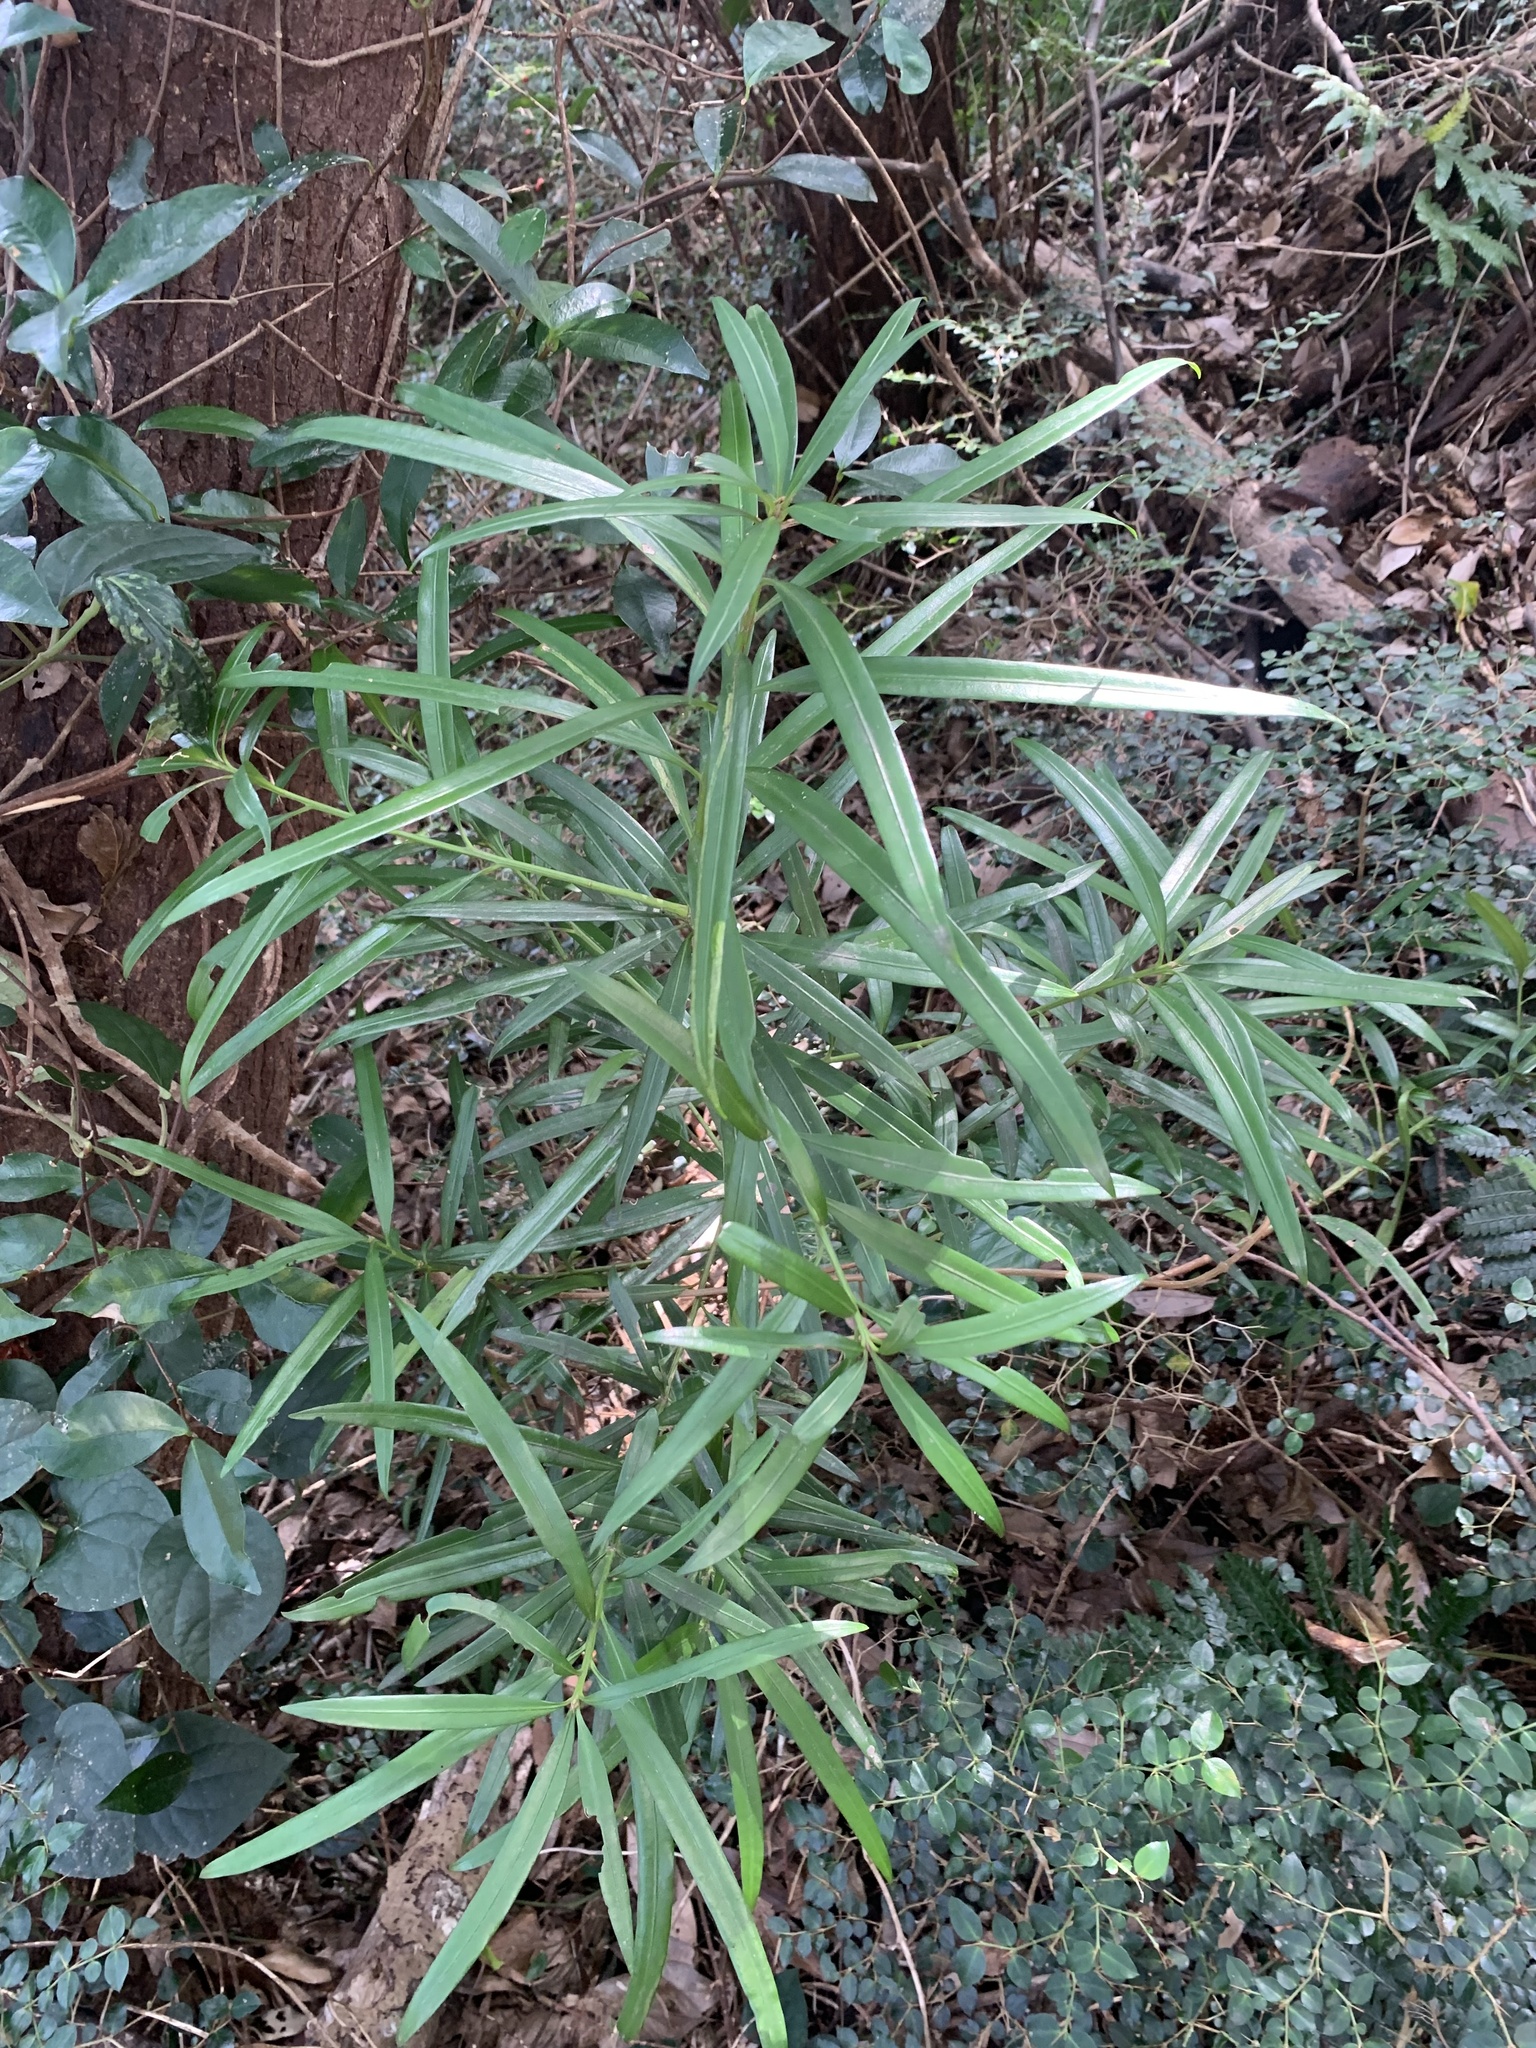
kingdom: Plantae
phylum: Tracheophyta
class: Pinopsida
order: Pinales
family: Podocarpaceae
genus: Podocarpus
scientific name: Podocarpus macrophyllus
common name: Japanese yew
